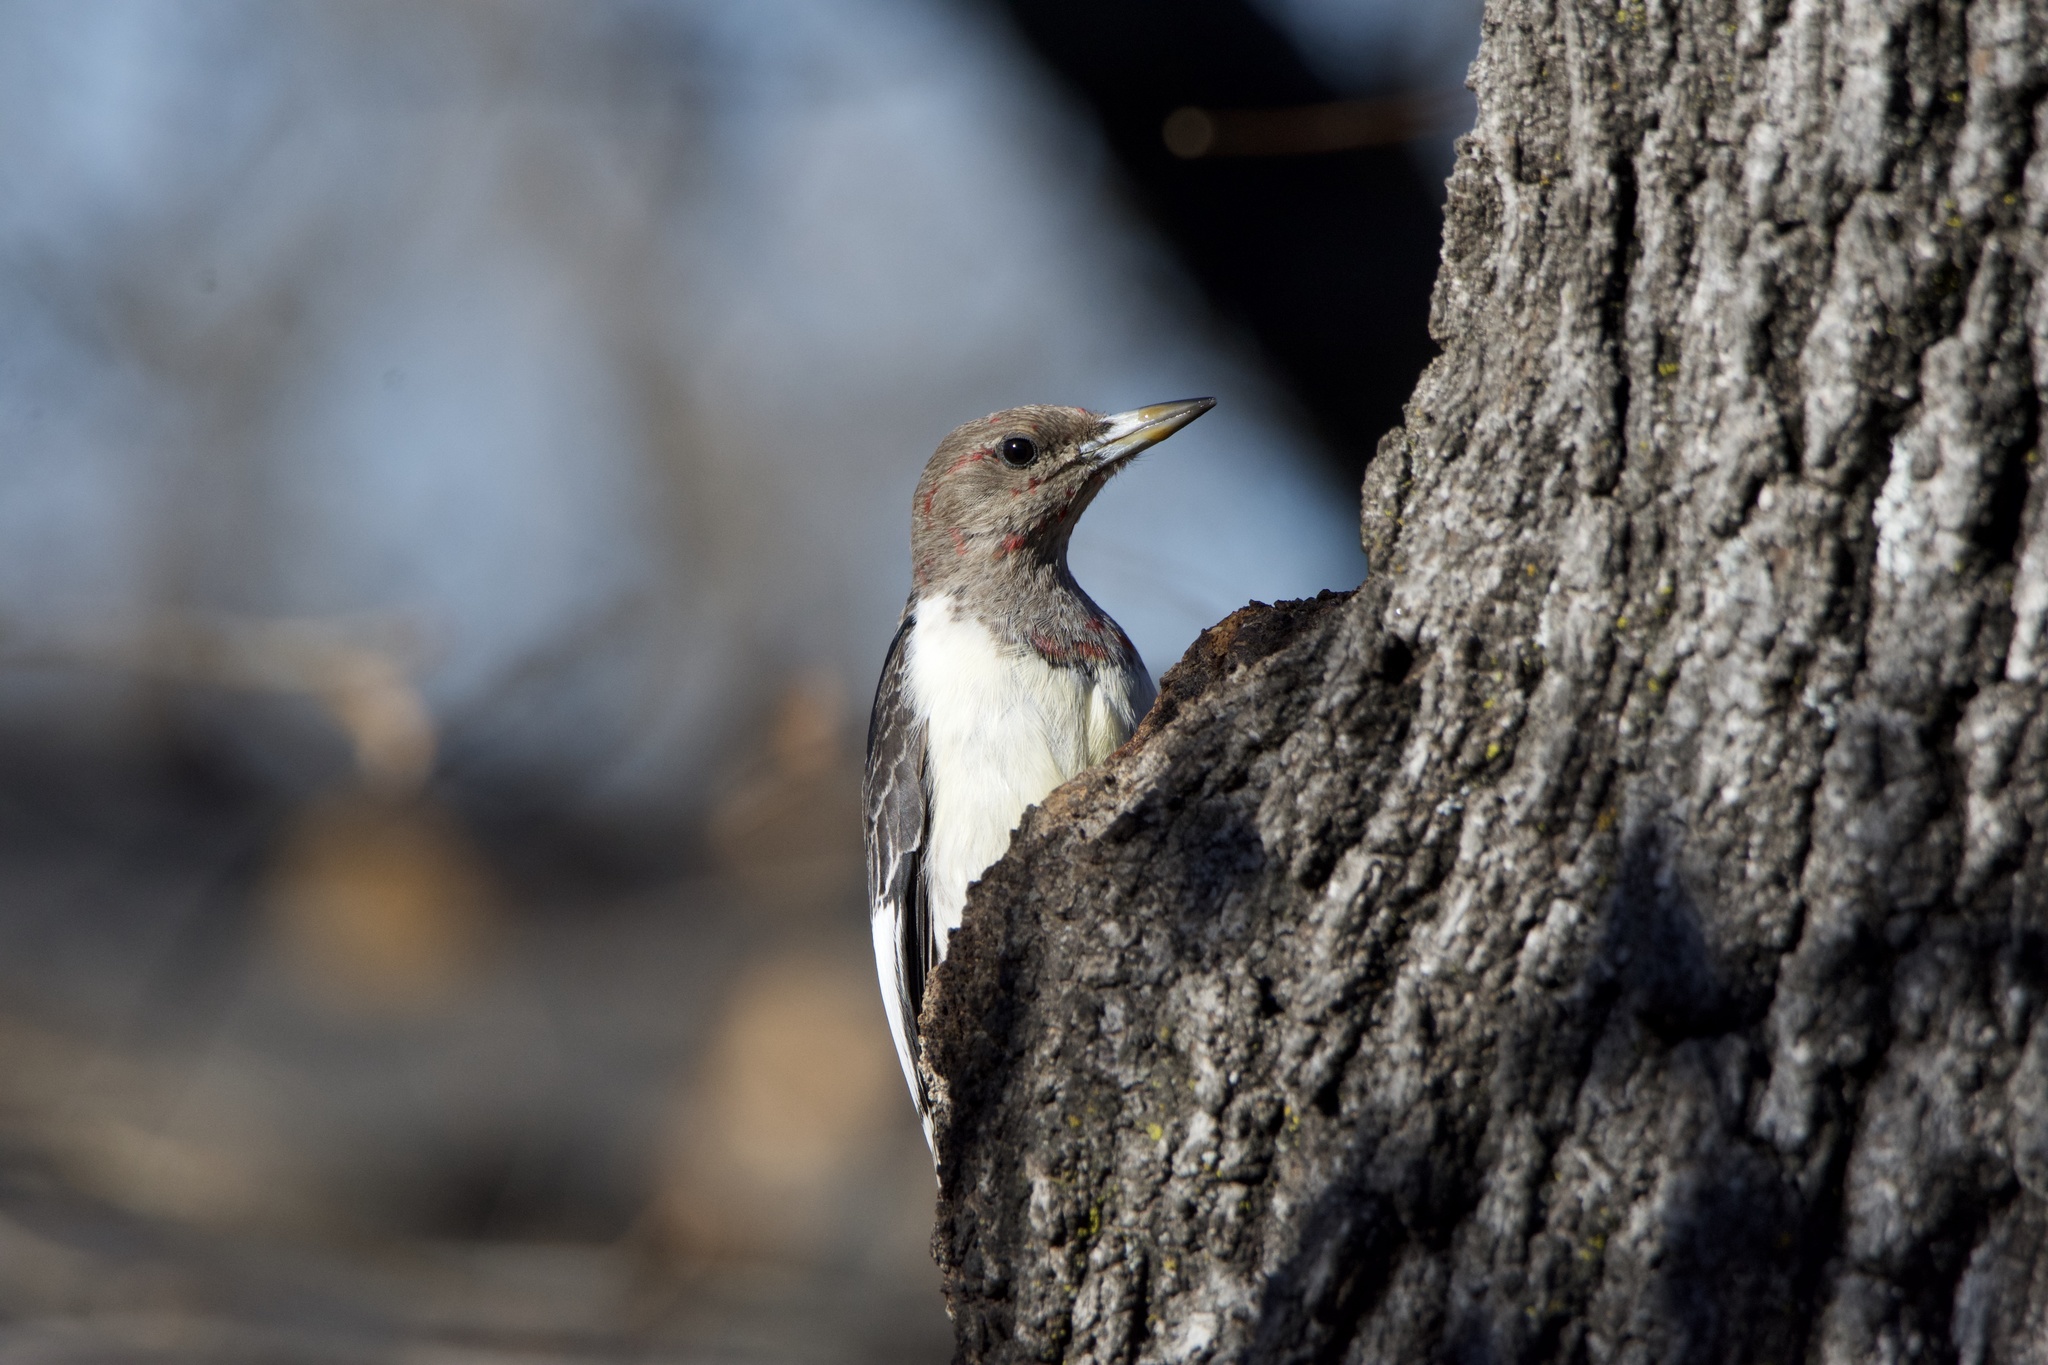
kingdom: Animalia
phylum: Chordata
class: Aves
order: Piciformes
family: Picidae
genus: Melanerpes
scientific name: Melanerpes erythrocephalus
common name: Red-headed woodpecker
